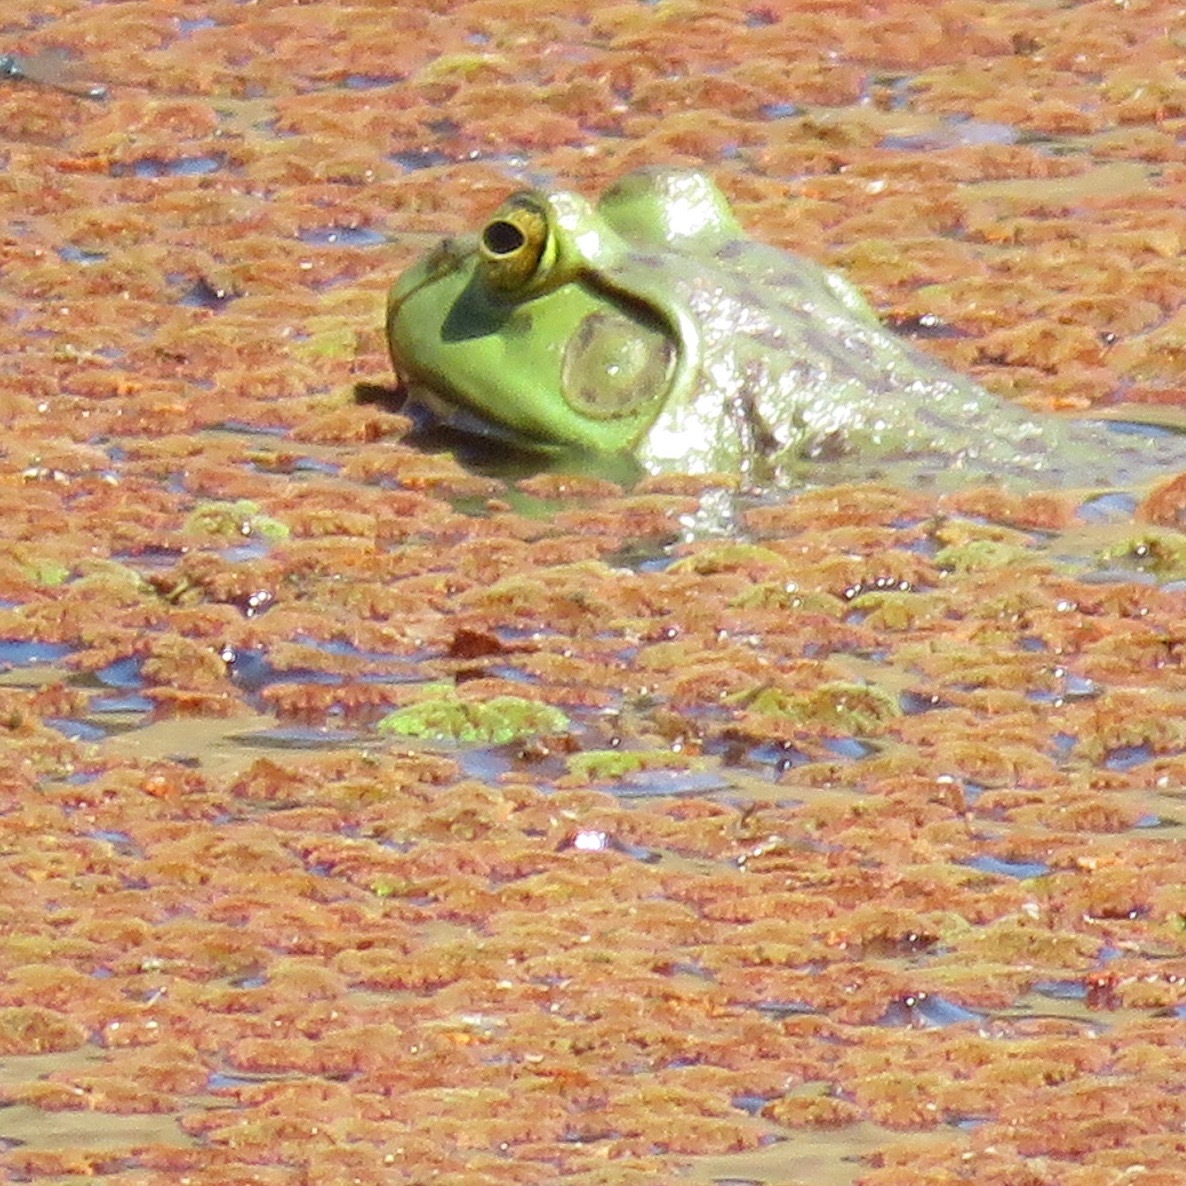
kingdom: Animalia
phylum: Chordata
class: Amphibia
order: Anura
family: Ranidae
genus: Lithobates
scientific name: Lithobates catesbeianus
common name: American bullfrog
